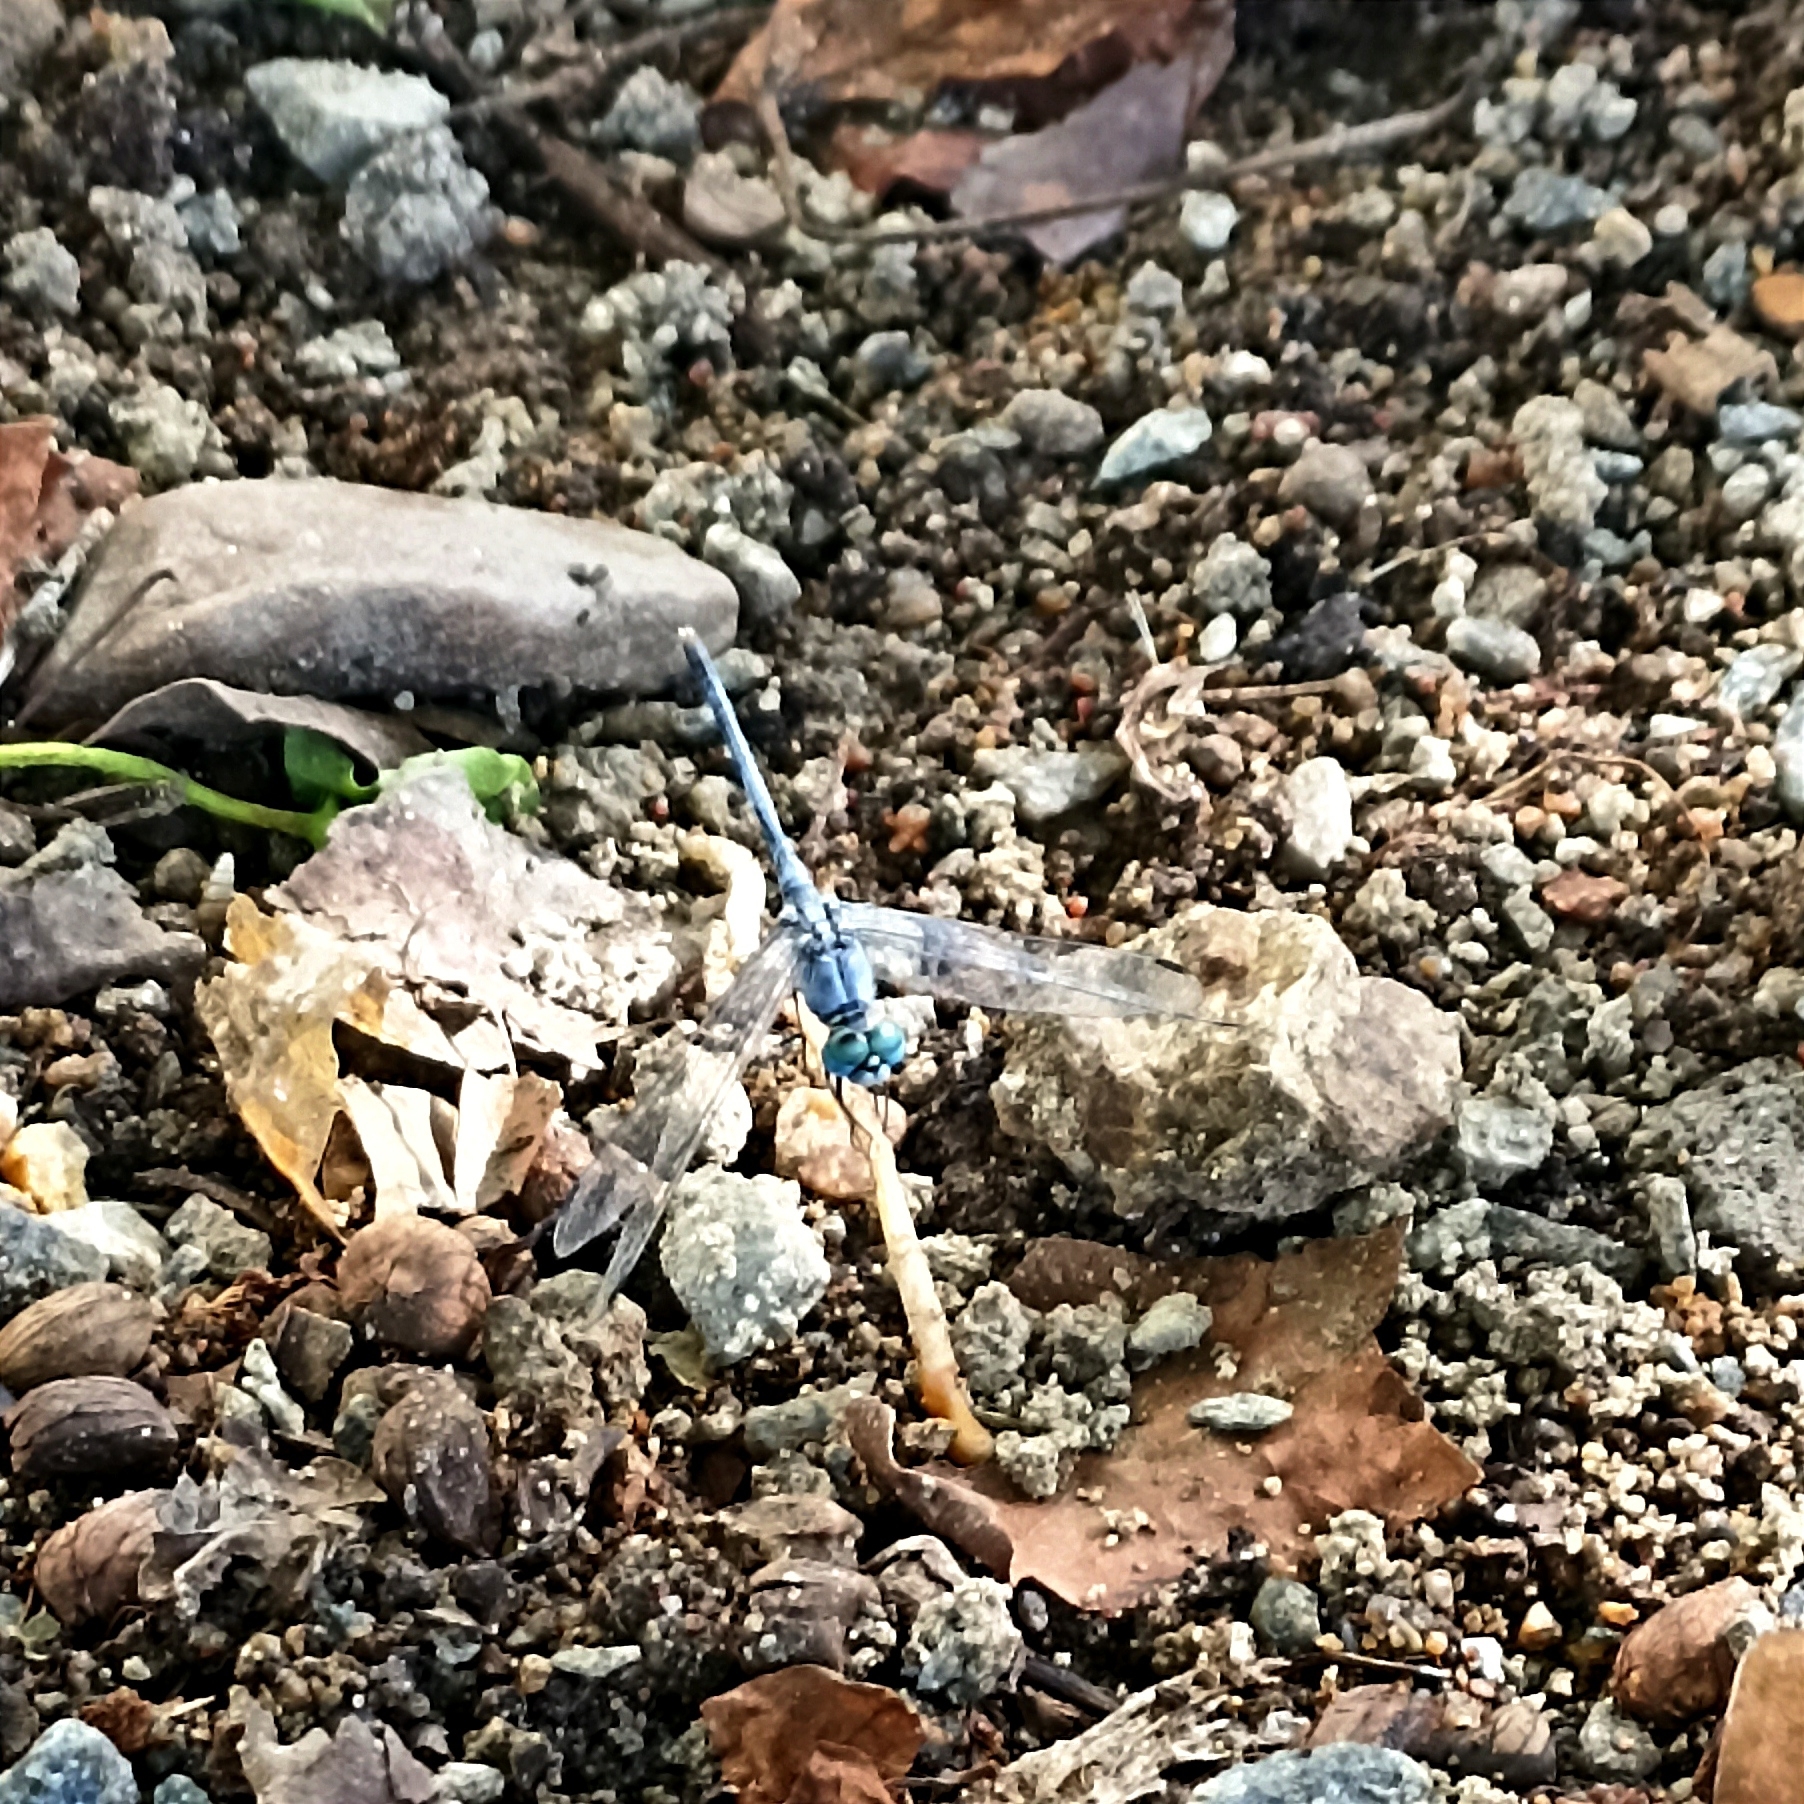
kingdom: Animalia
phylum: Arthropoda
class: Insecta
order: Odonata
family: Libellulidae
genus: Diplacodes
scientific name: Diplacodes trivialis
